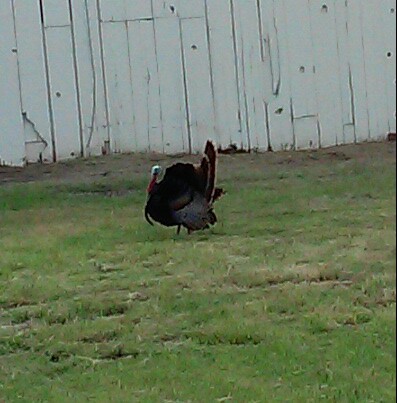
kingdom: Animalia
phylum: Chordata
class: Aves
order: Galliformes
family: Phasianidae
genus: Meleagris
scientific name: Meleagris gallopavo
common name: Wild turkey
